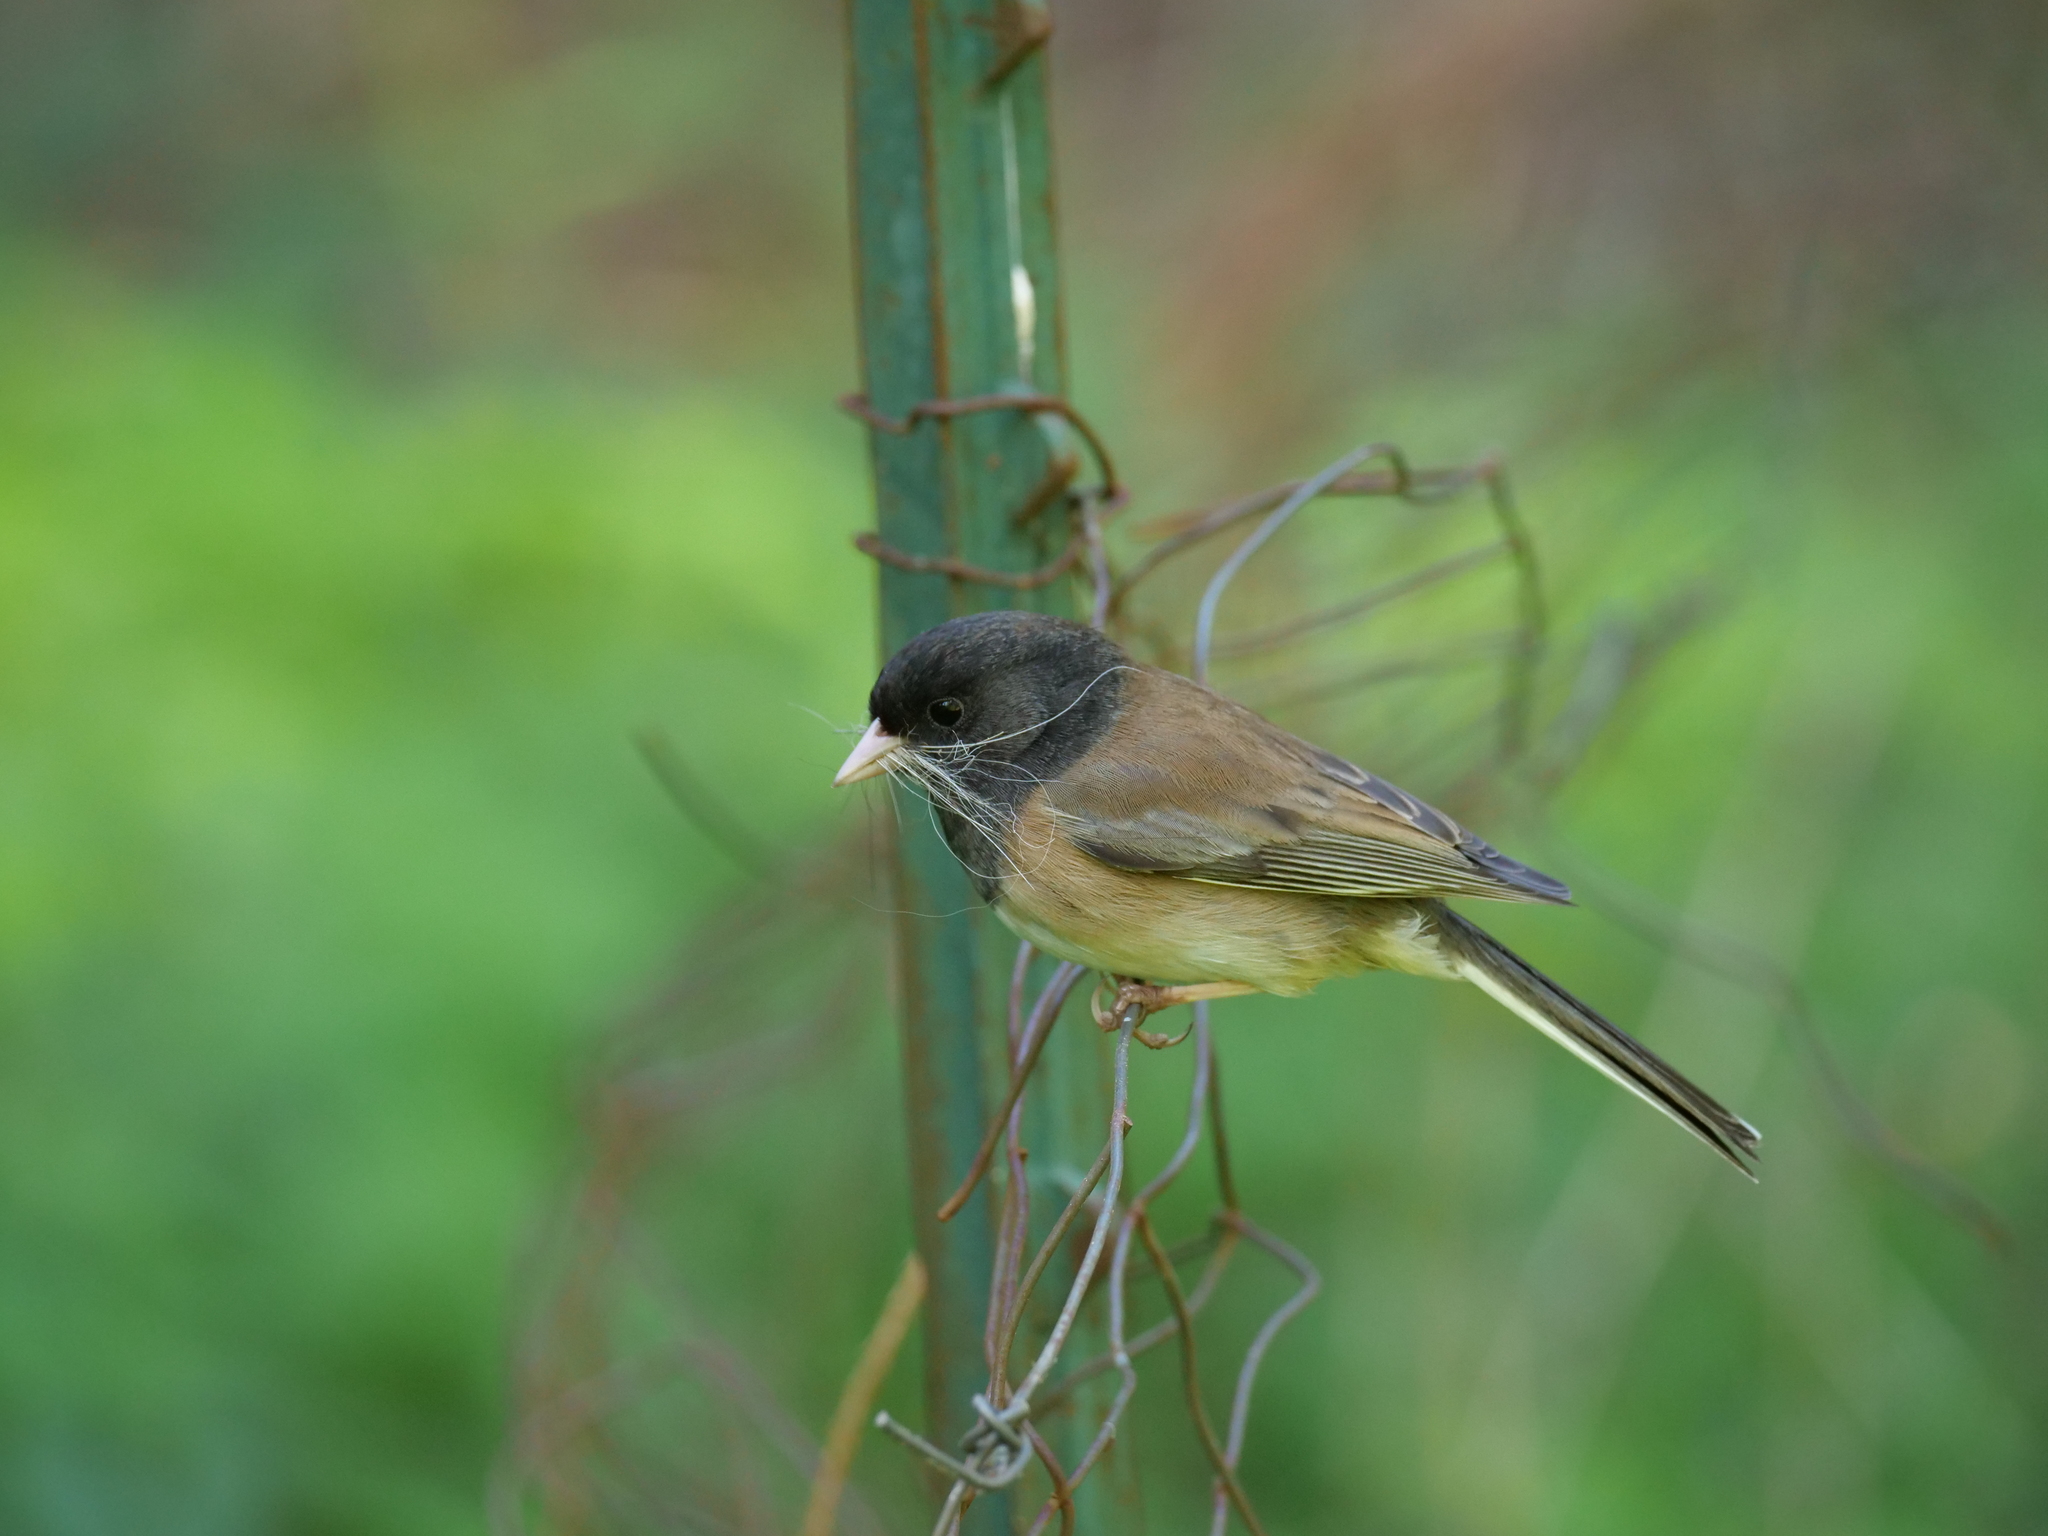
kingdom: Animalia
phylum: Chordata
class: Aves
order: Passeriformes
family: Passerellidae
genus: Junco
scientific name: Junco hyemalis
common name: Dark-eyed junco
